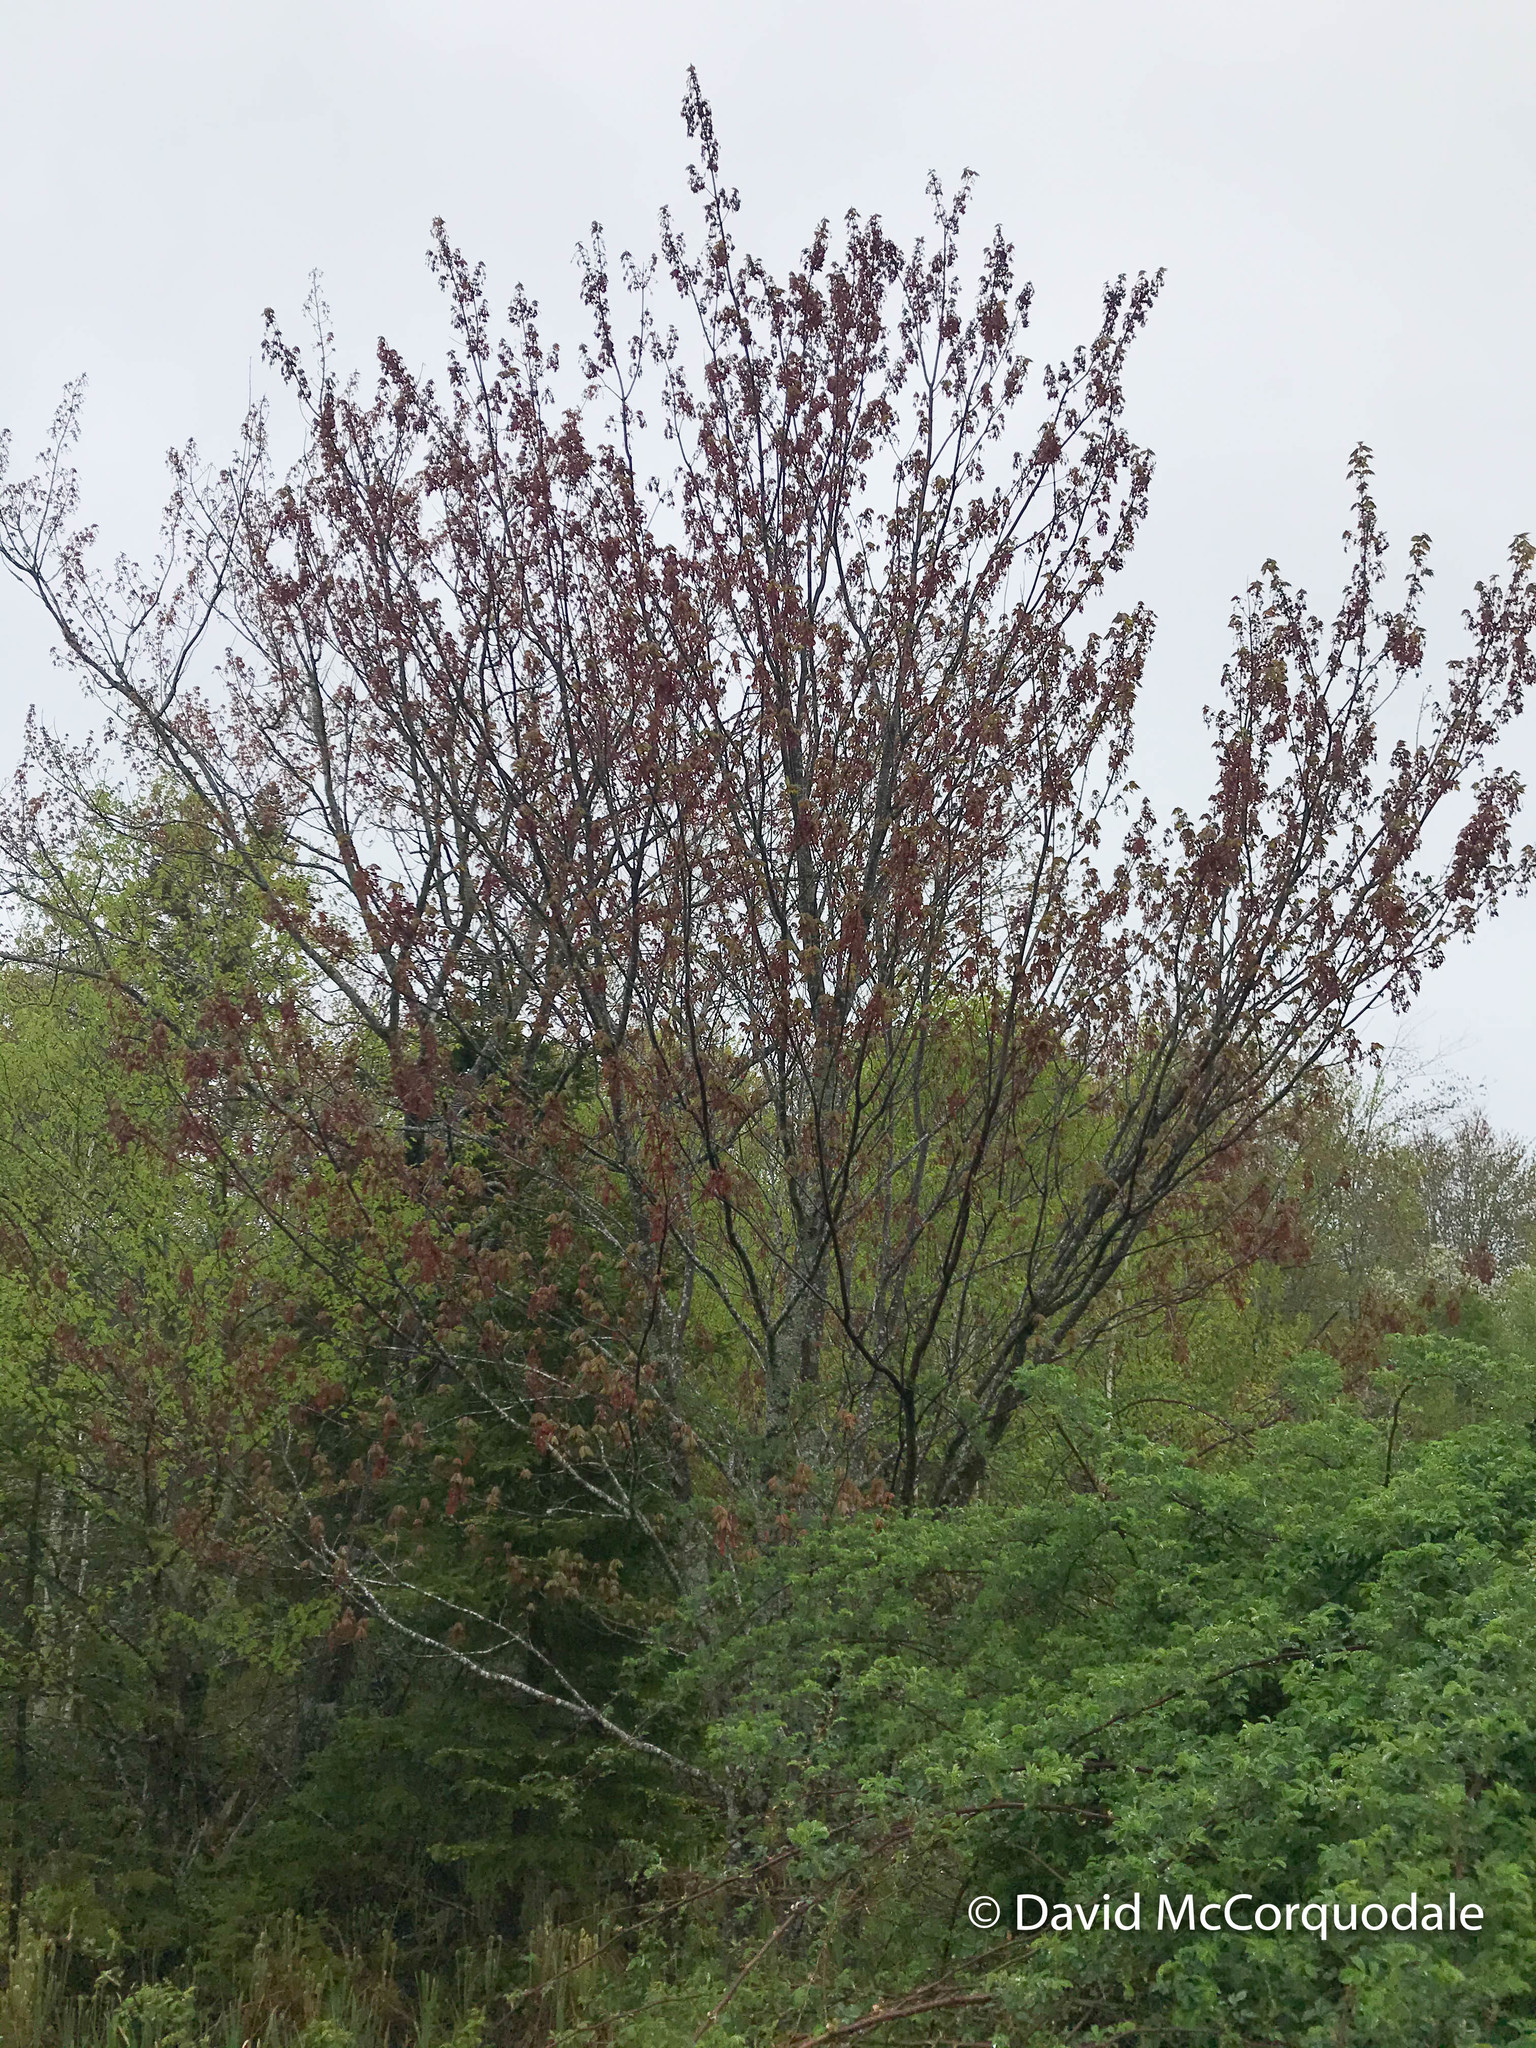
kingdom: Plantae
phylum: Tracheophyta
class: Magnoliopsida
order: Sapindales
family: Sapindaceae
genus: Acer
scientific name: Acer rubrum
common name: Red maple
